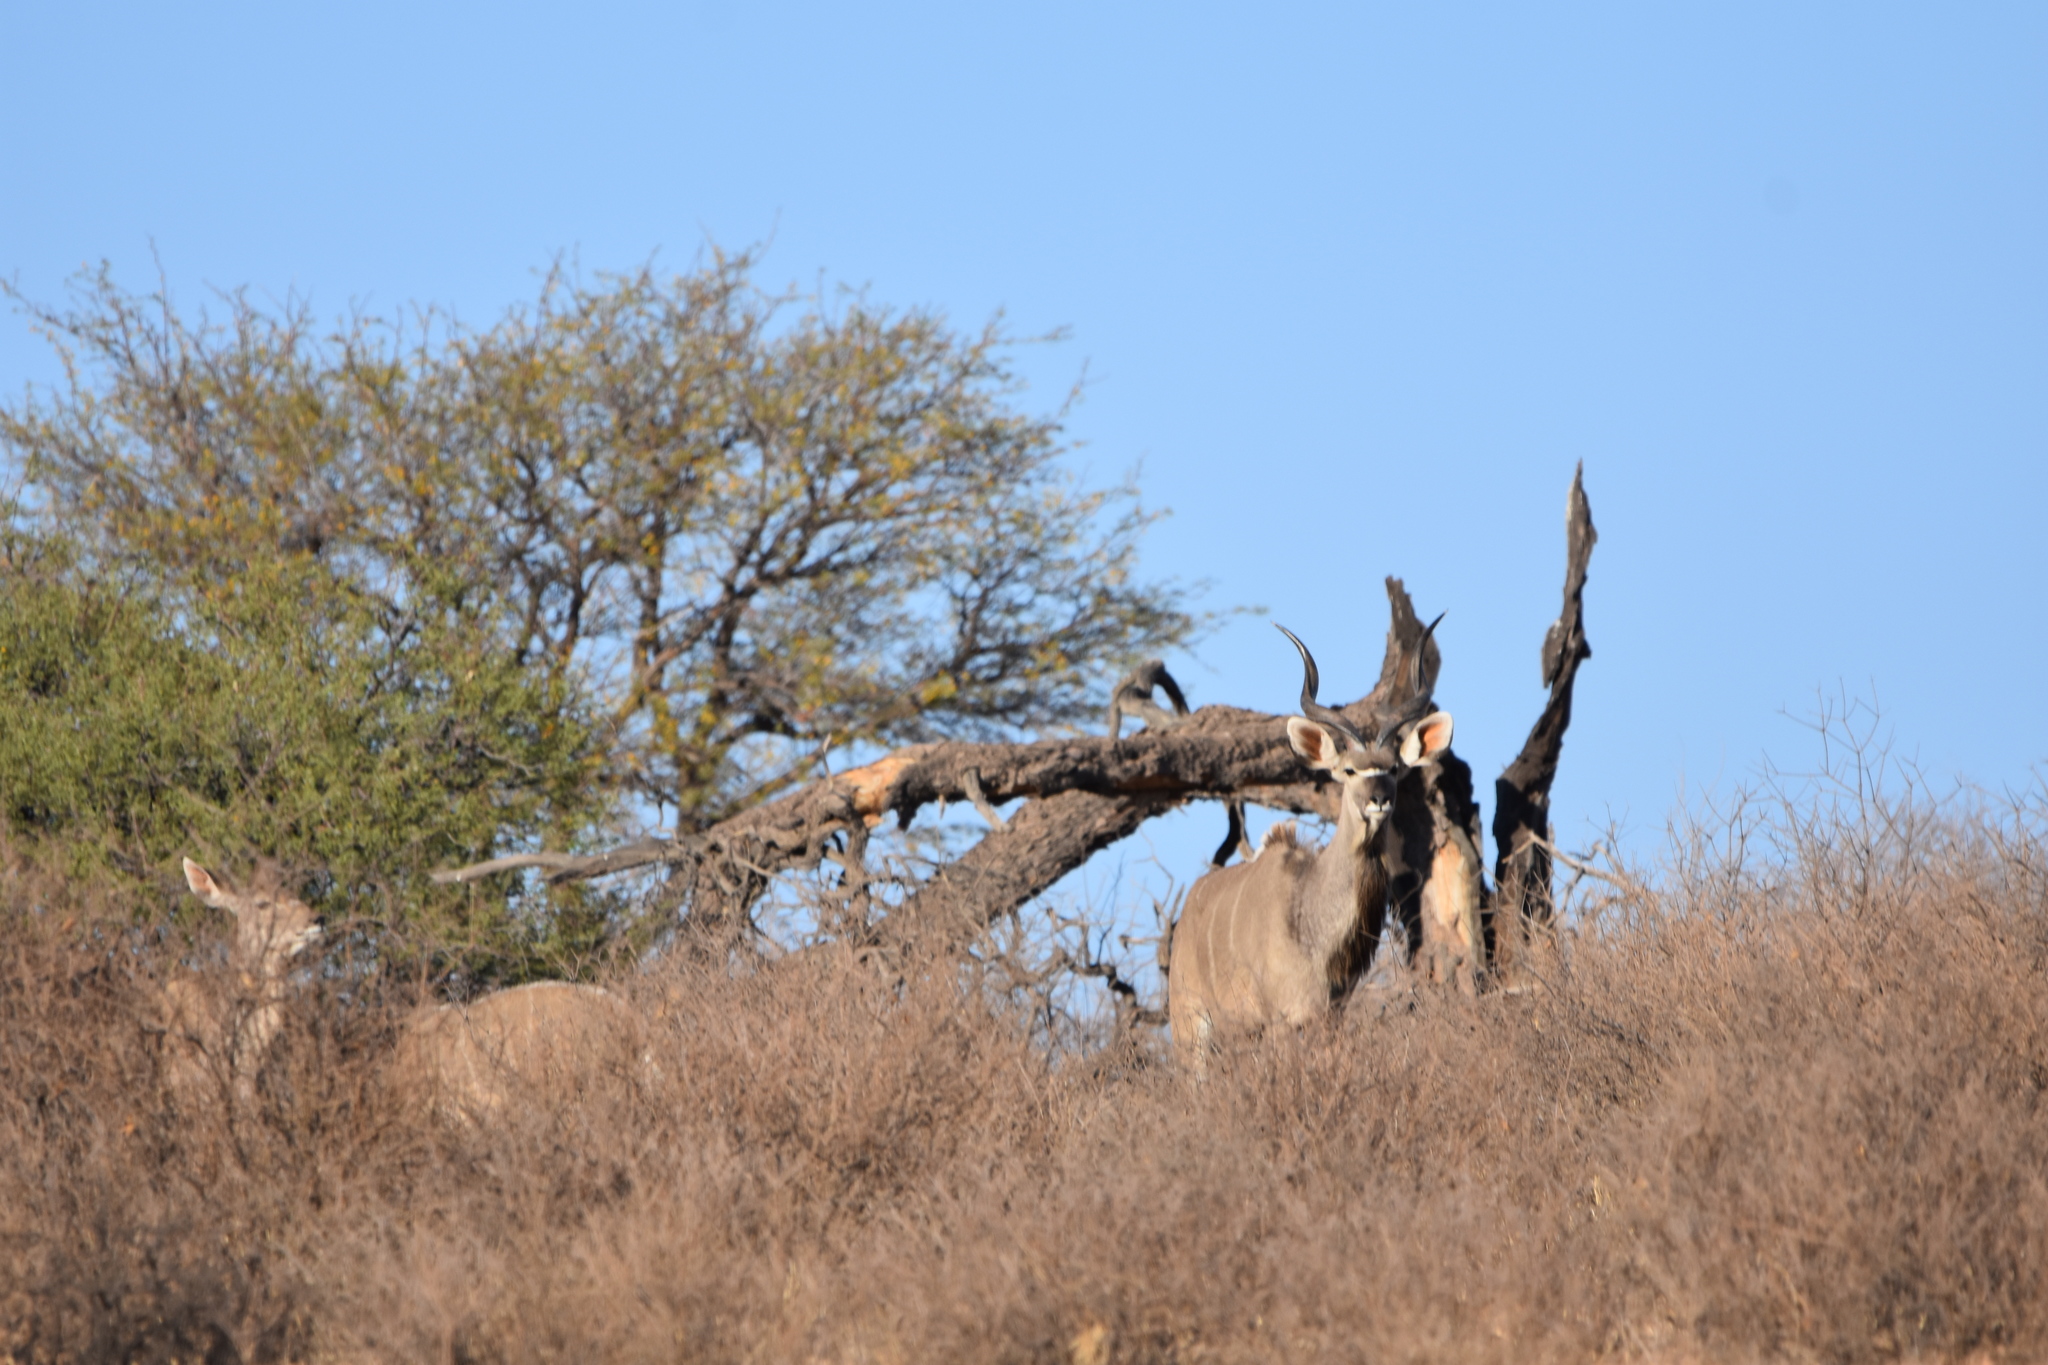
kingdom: Animalia
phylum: Chordata
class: Mammalia
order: Artiodactyla
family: Bovidae
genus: Tragelaphus
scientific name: Tragelaphus strepsiceros
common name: Greater kudu
